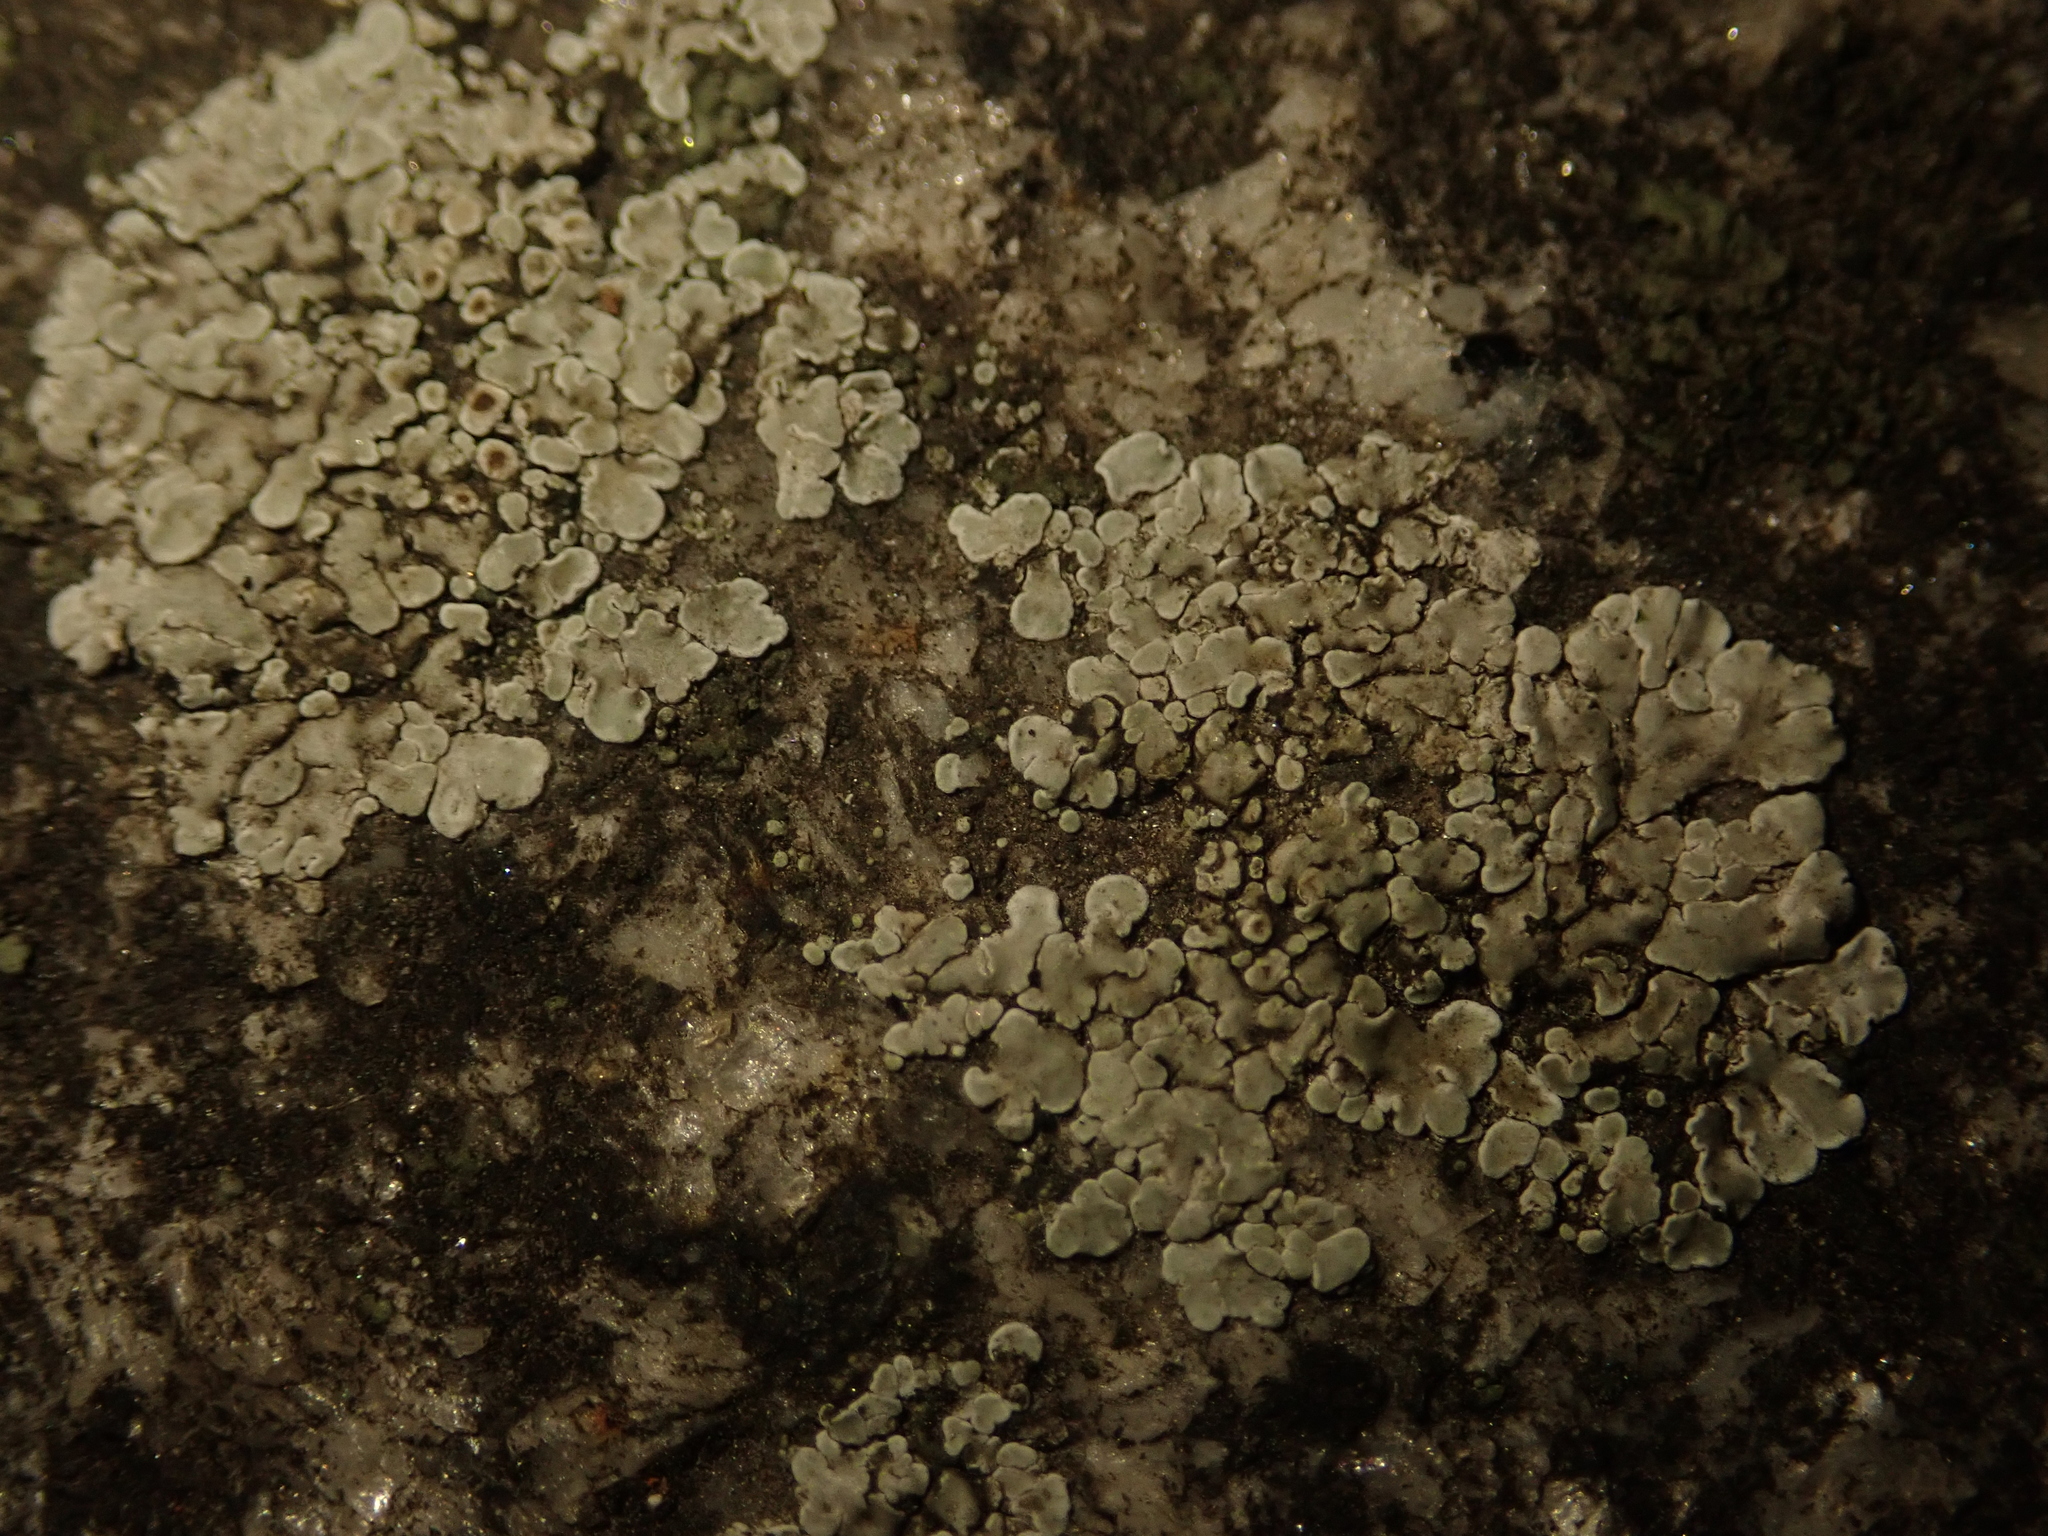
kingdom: Fungi
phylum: Ascomycota
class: Lecanoromycetes
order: Lecanorales
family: Lecanoraceae
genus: Protoparmeliopsis
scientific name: Protoparmeliopsis muralis
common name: Stonewall rim lichen
